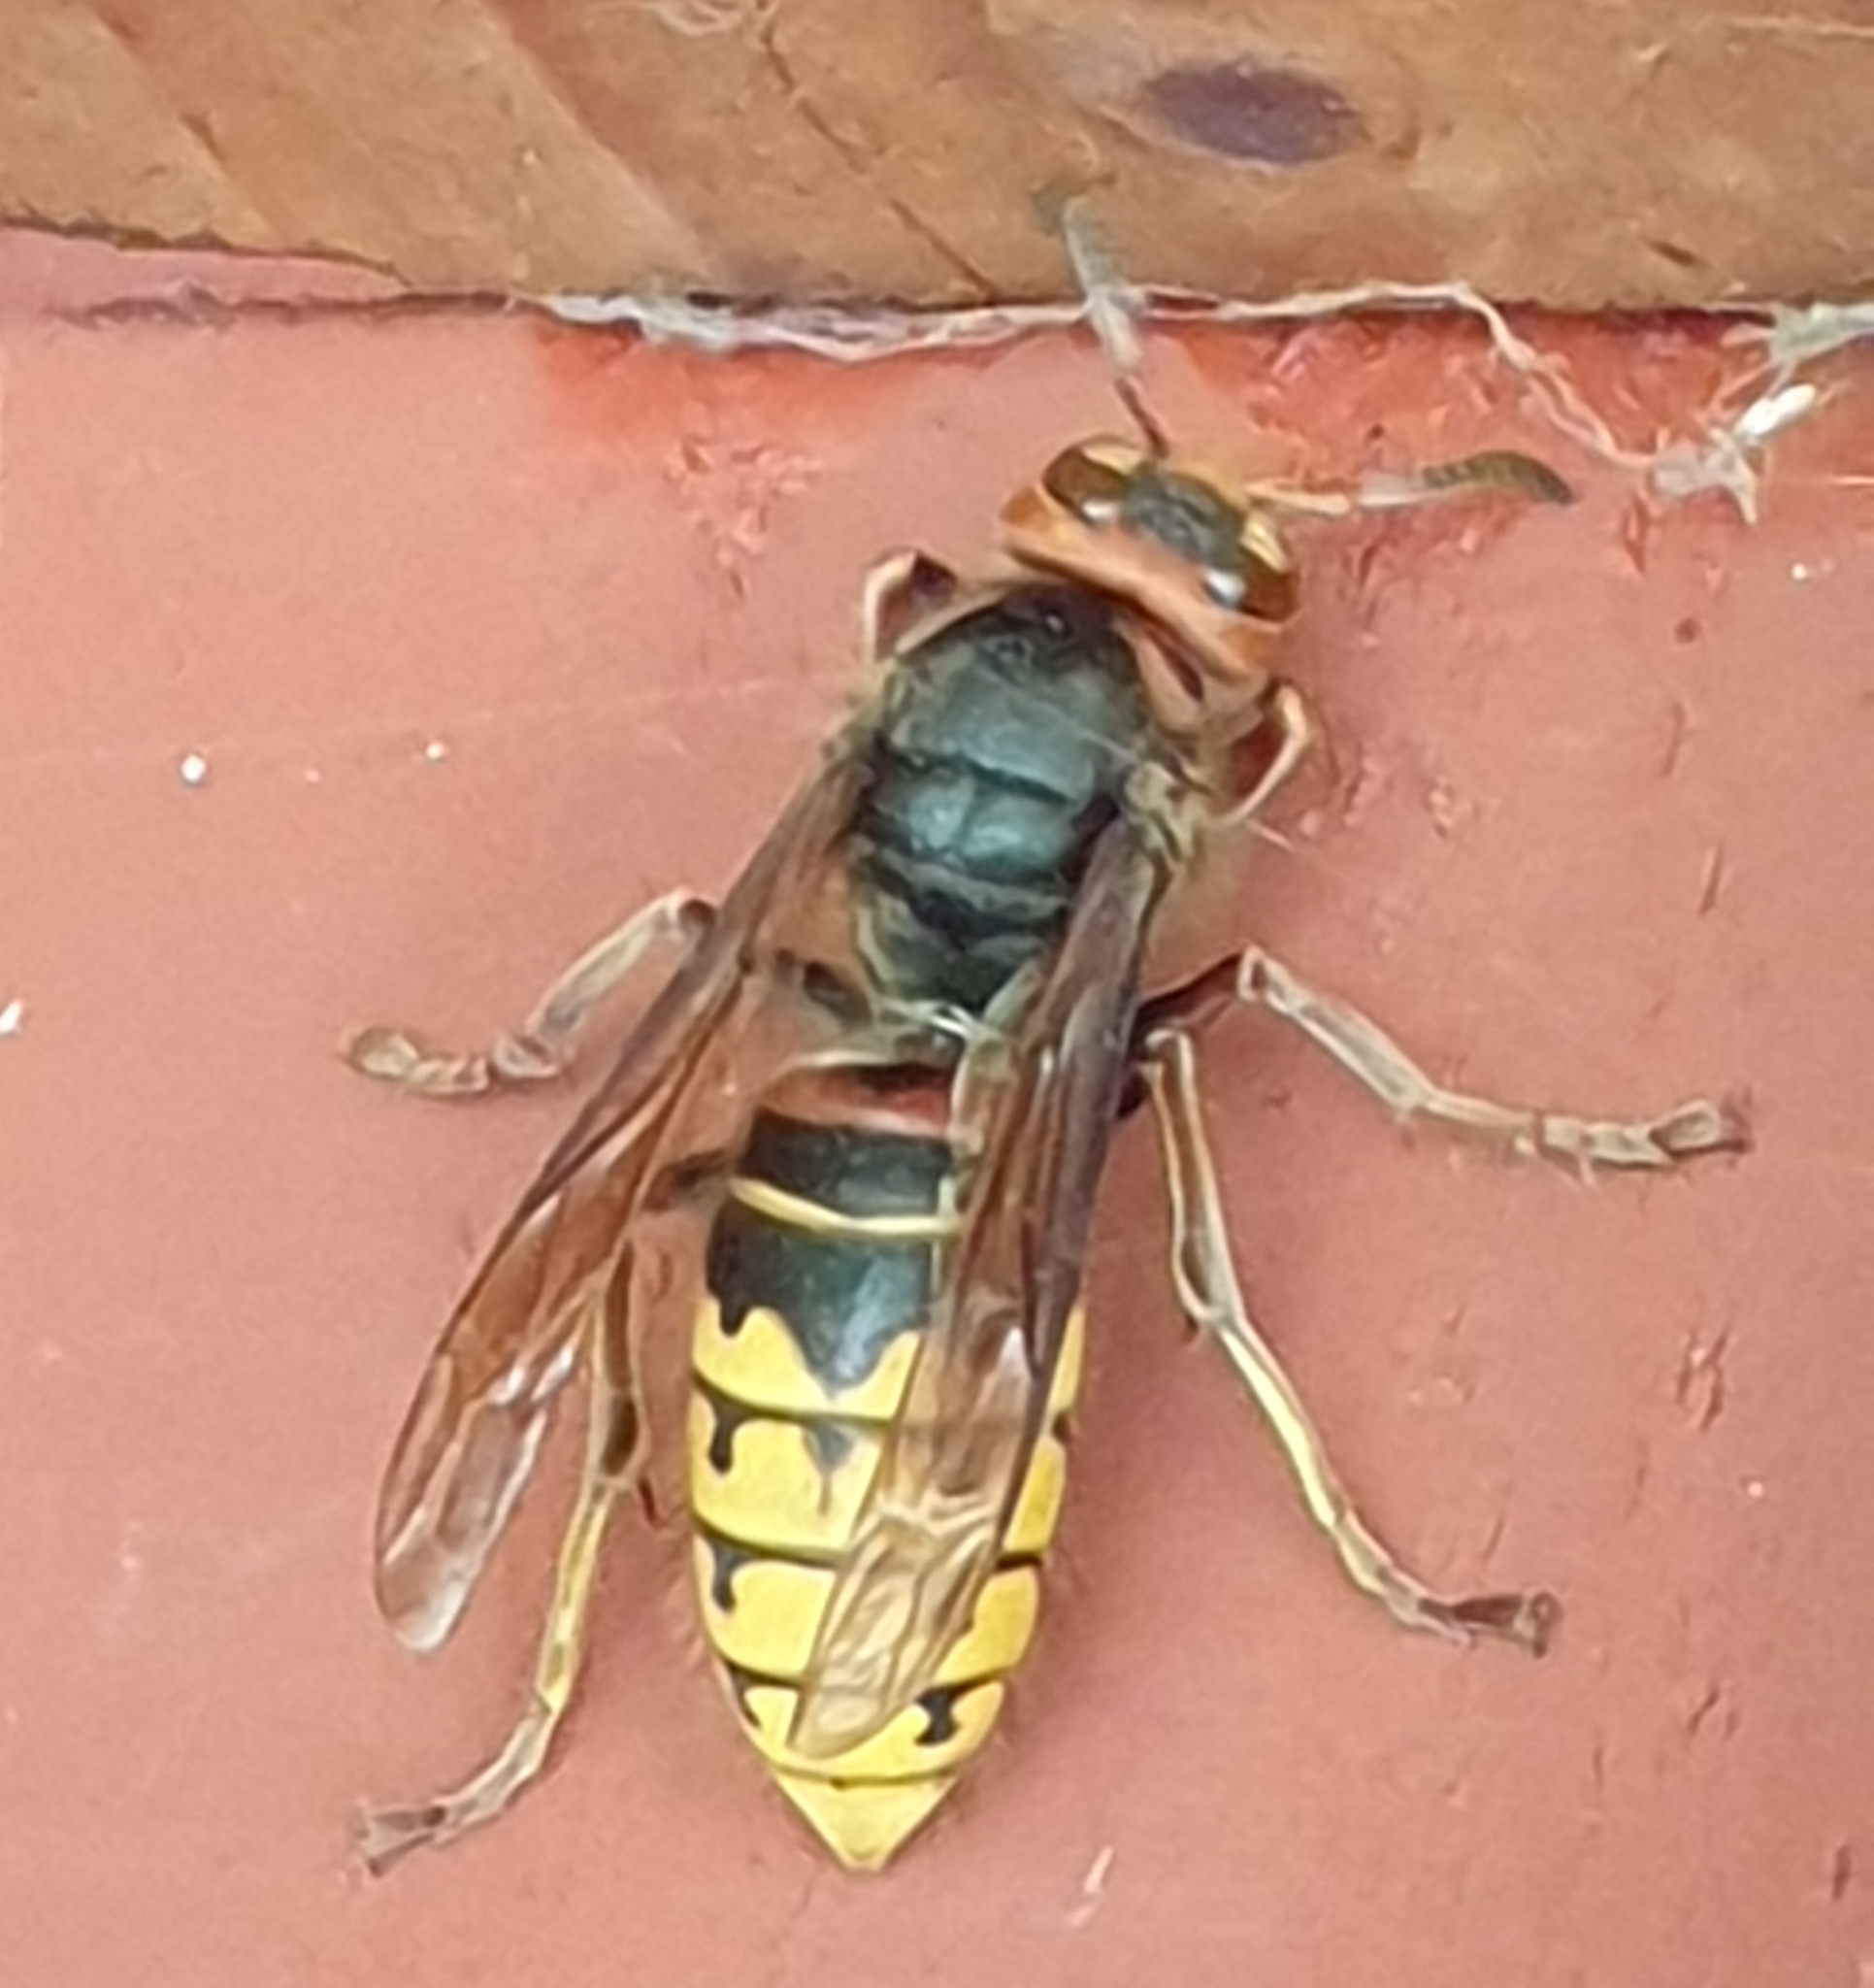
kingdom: Animalia
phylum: Arthropoda
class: Insecta
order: Hymenoptera
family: Vespidae
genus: Vespa
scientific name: Vespa crabro
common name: Hornet
